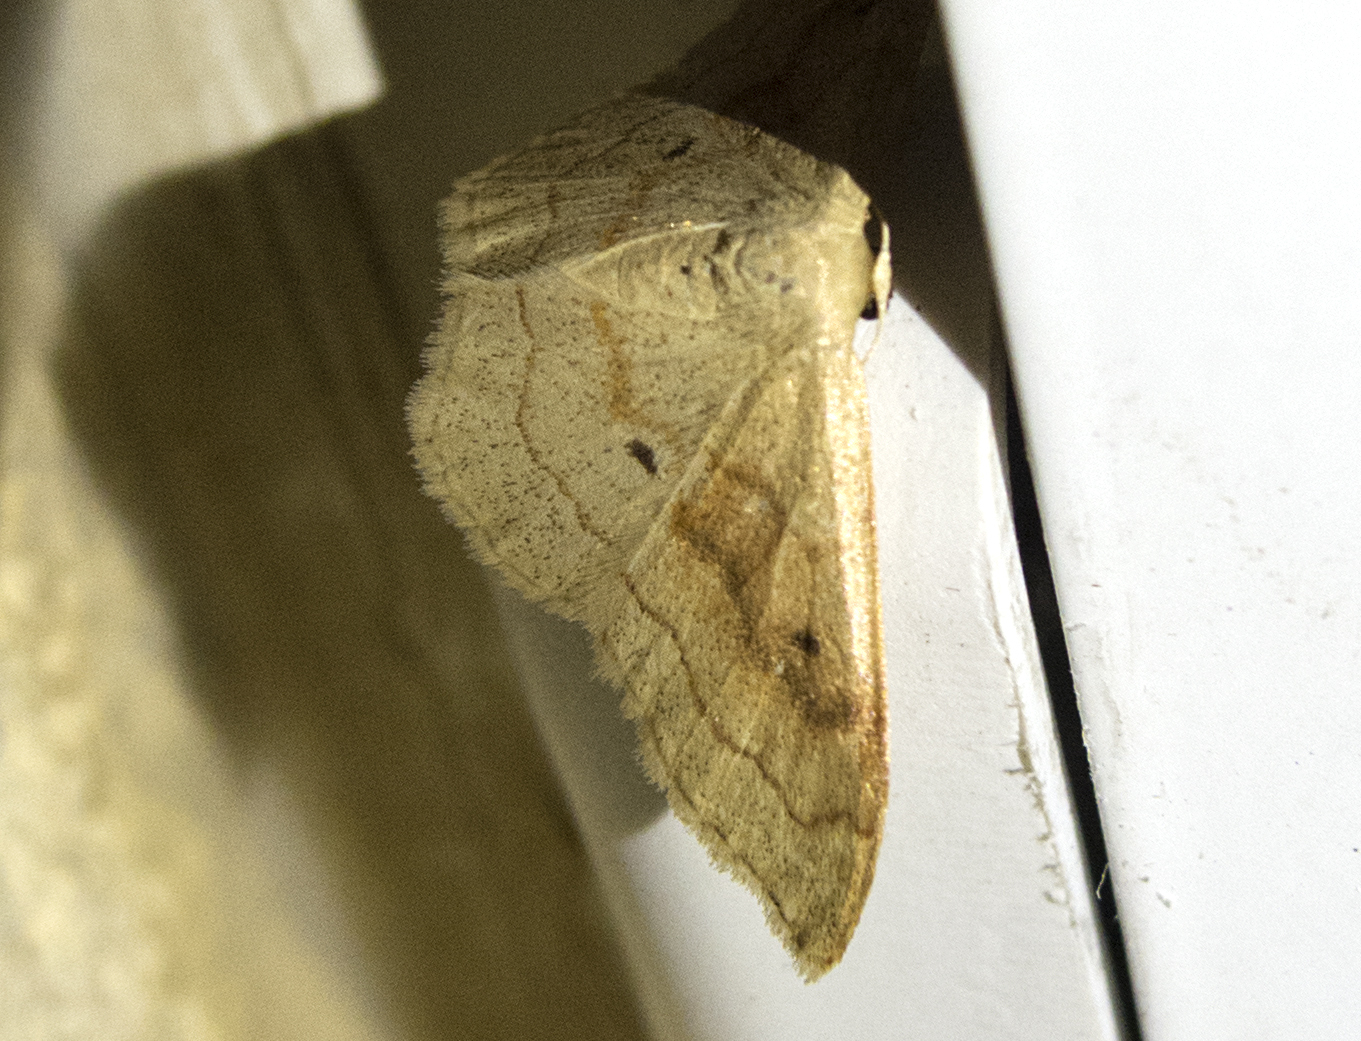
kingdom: Animalia
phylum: Arthropoda
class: Insecta
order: Lepidoptera
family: Geometridae
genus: Idaea
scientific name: Idaea bilinearia
